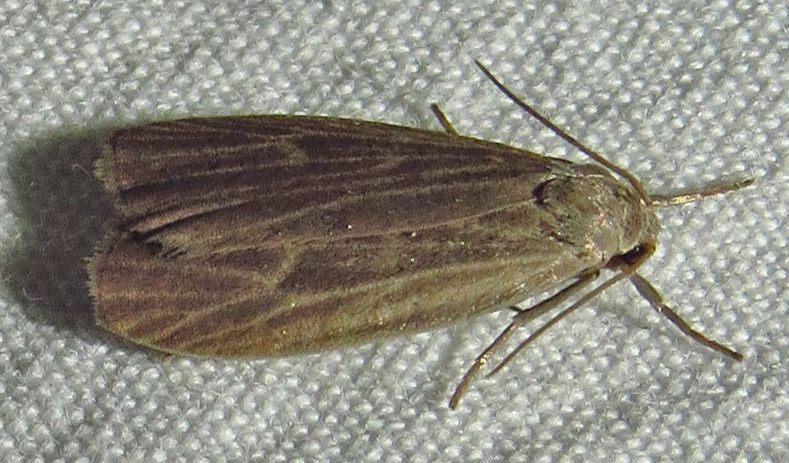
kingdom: Animalia
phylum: Arthropoda
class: Insecta
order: Lepidoptera
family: Erebidae
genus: Crambidia
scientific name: Crambidia uniformis
